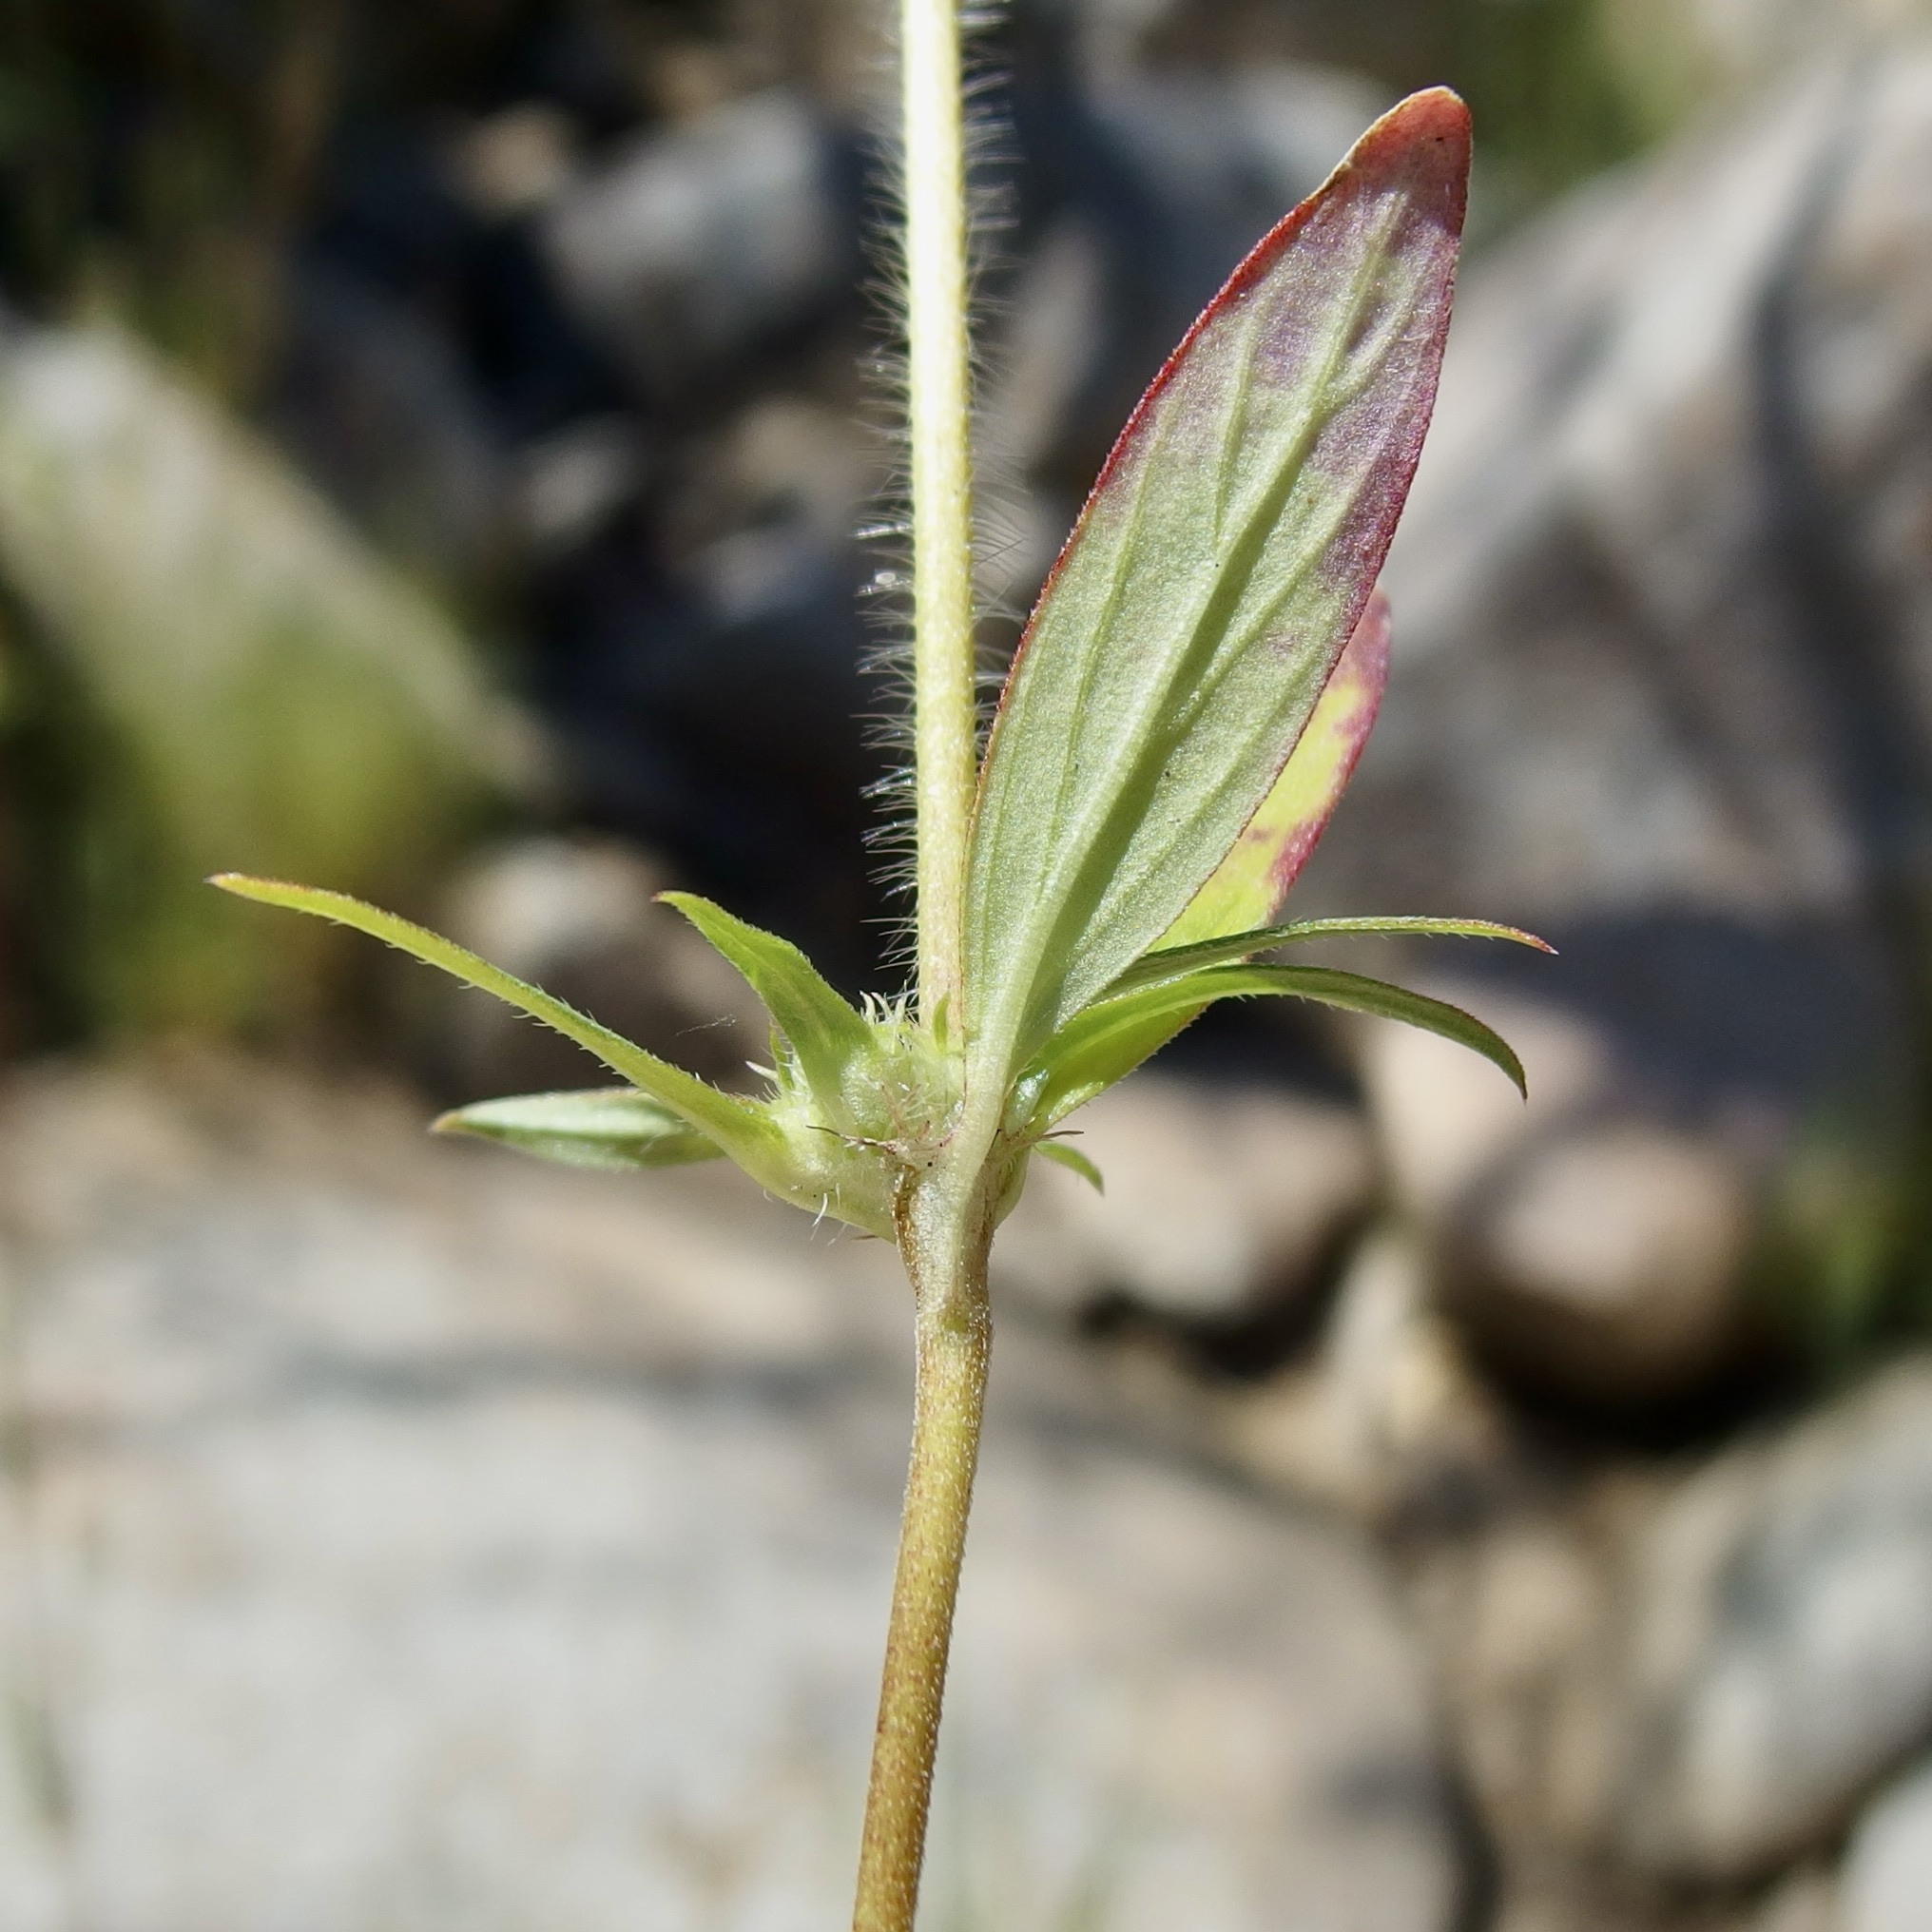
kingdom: Plantae
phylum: Tracheophyta
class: Magnoliopsida
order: Gentianales
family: Rubiaceae
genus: Crusea
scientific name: Crusea wrightii
